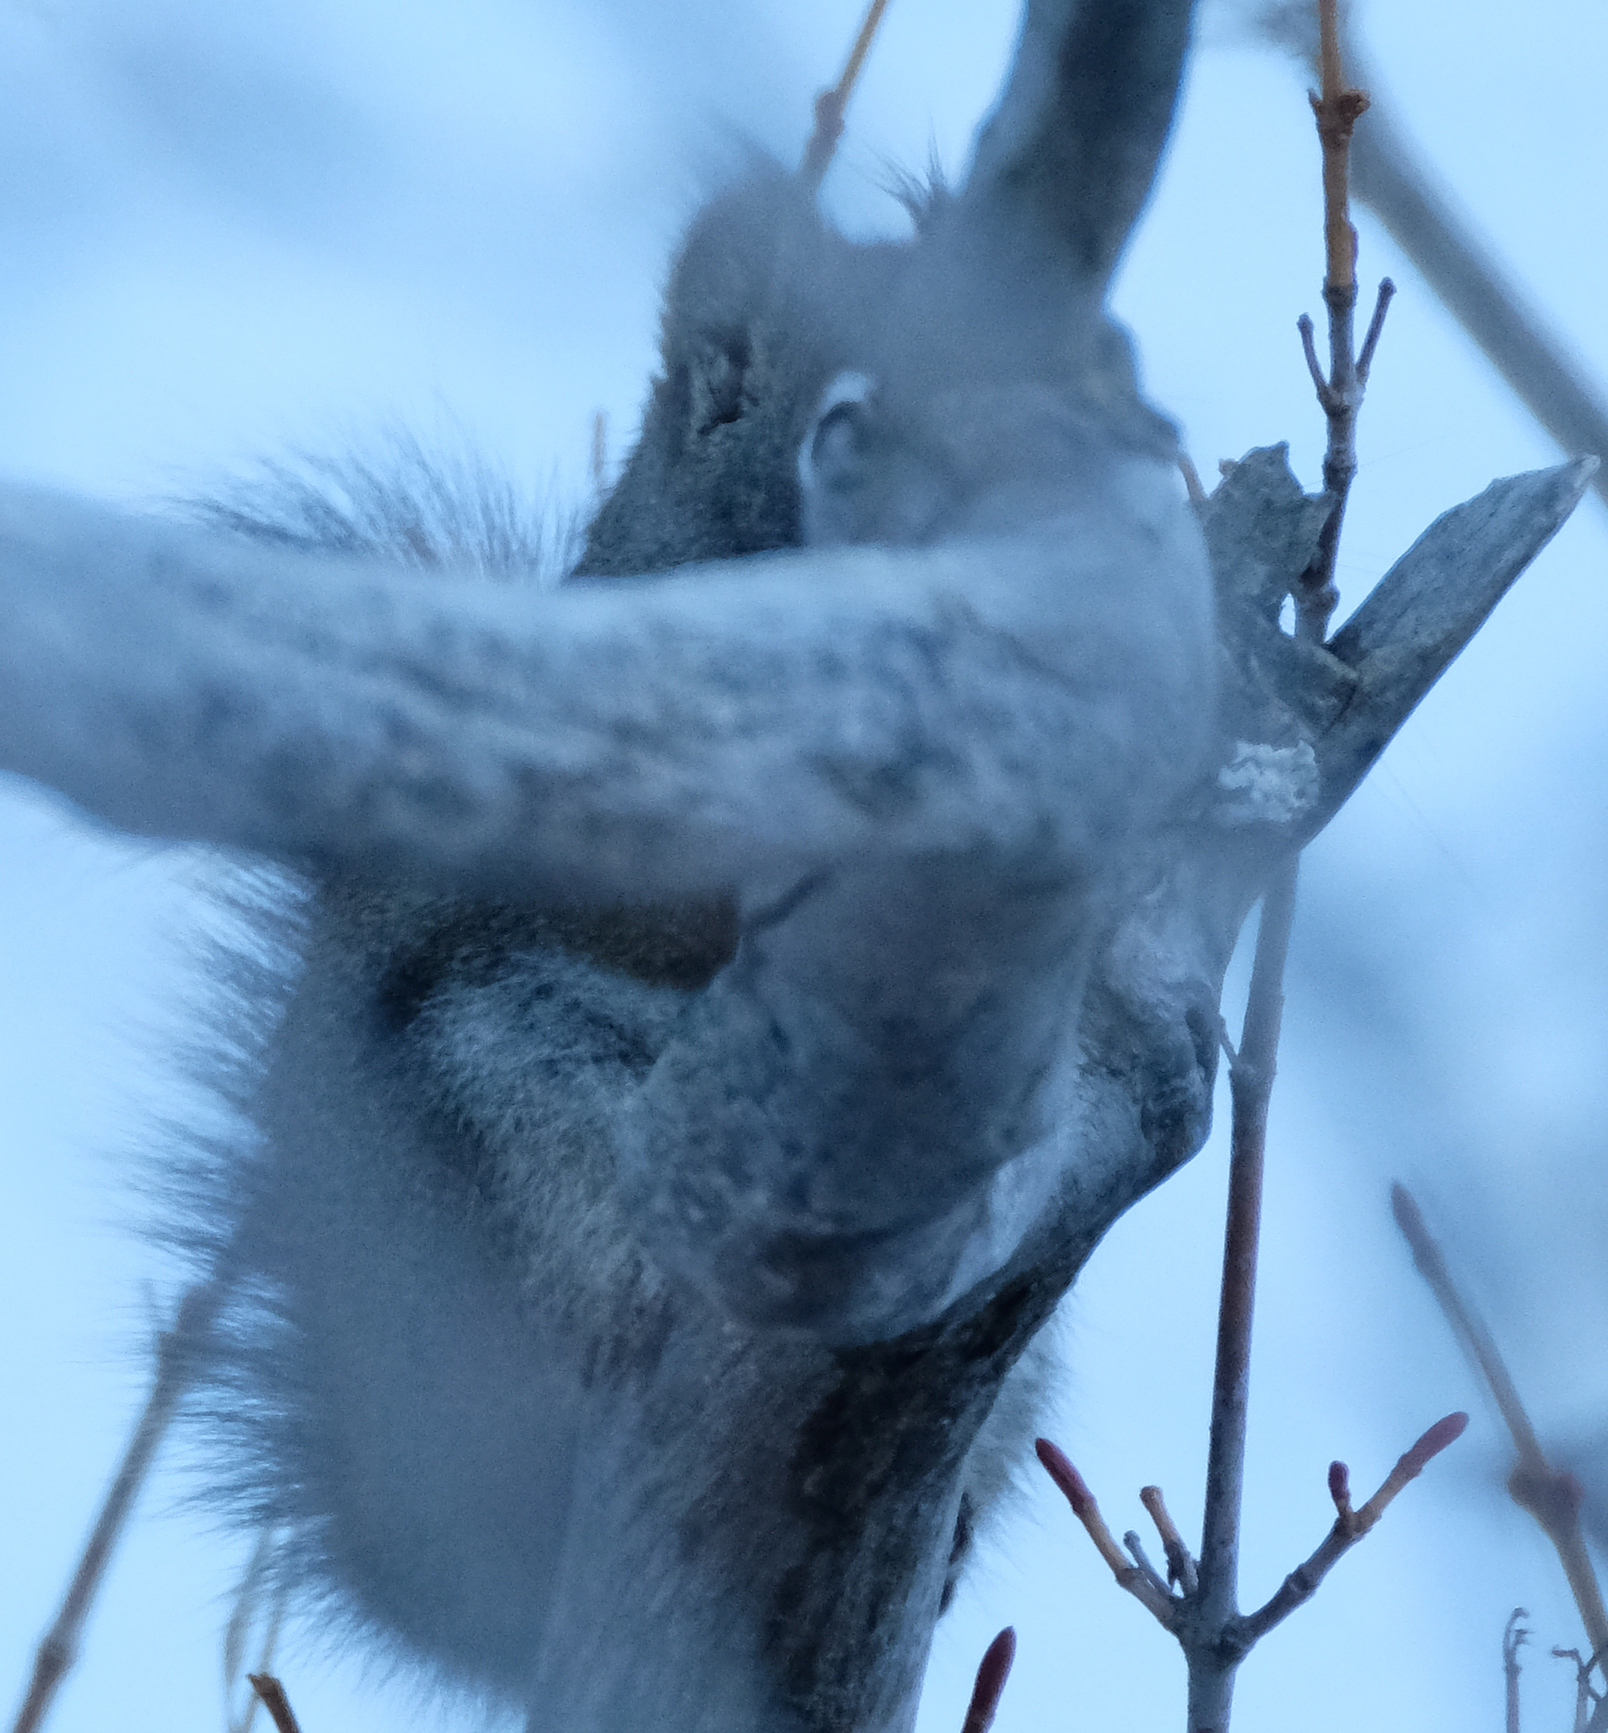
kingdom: Animalia
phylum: Chordata
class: Mammalia
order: Rodentia
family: Sciuridae
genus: Tamiasciurus
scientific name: Tamiasciurus hudsonicus
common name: Red squirrel
